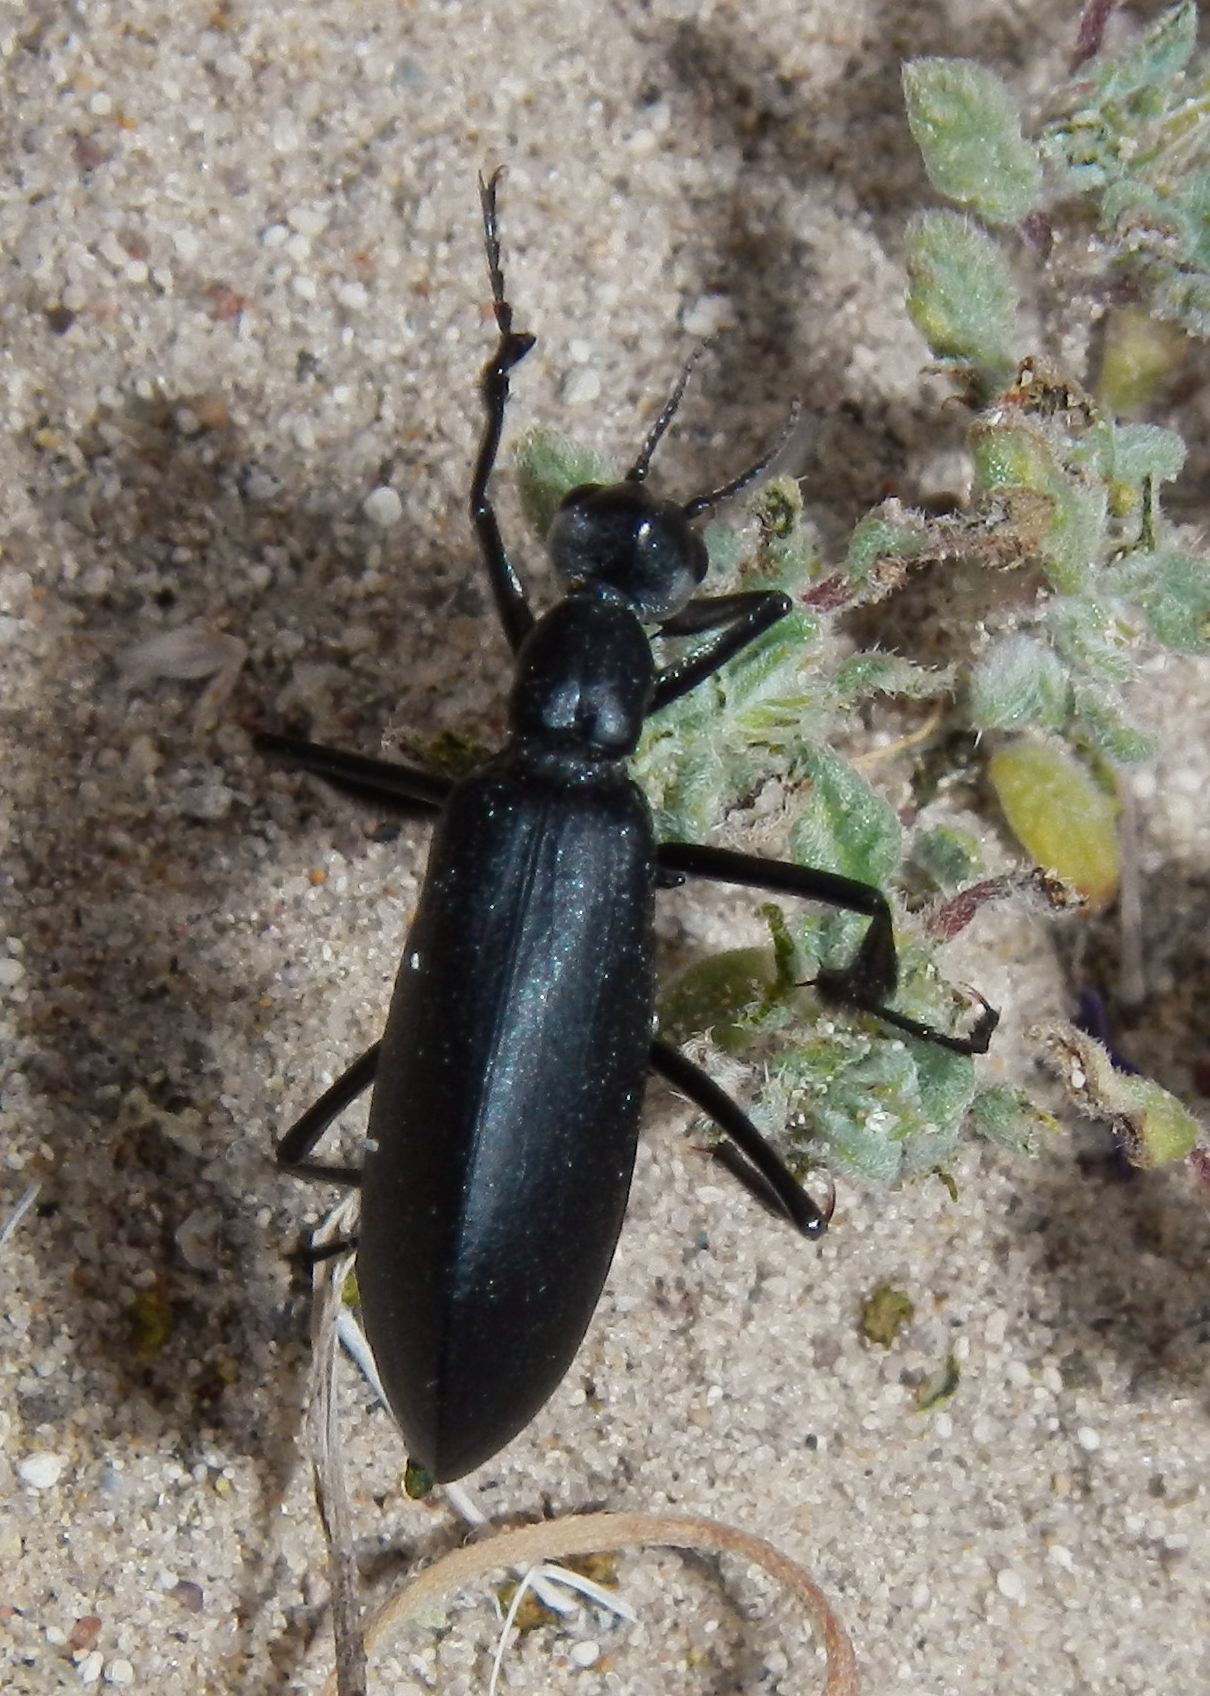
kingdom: Animalia
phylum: Arthropoda
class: Insecta
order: Coleoptera
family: Meloidae
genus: Phodaga
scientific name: Phodaga alticeps
